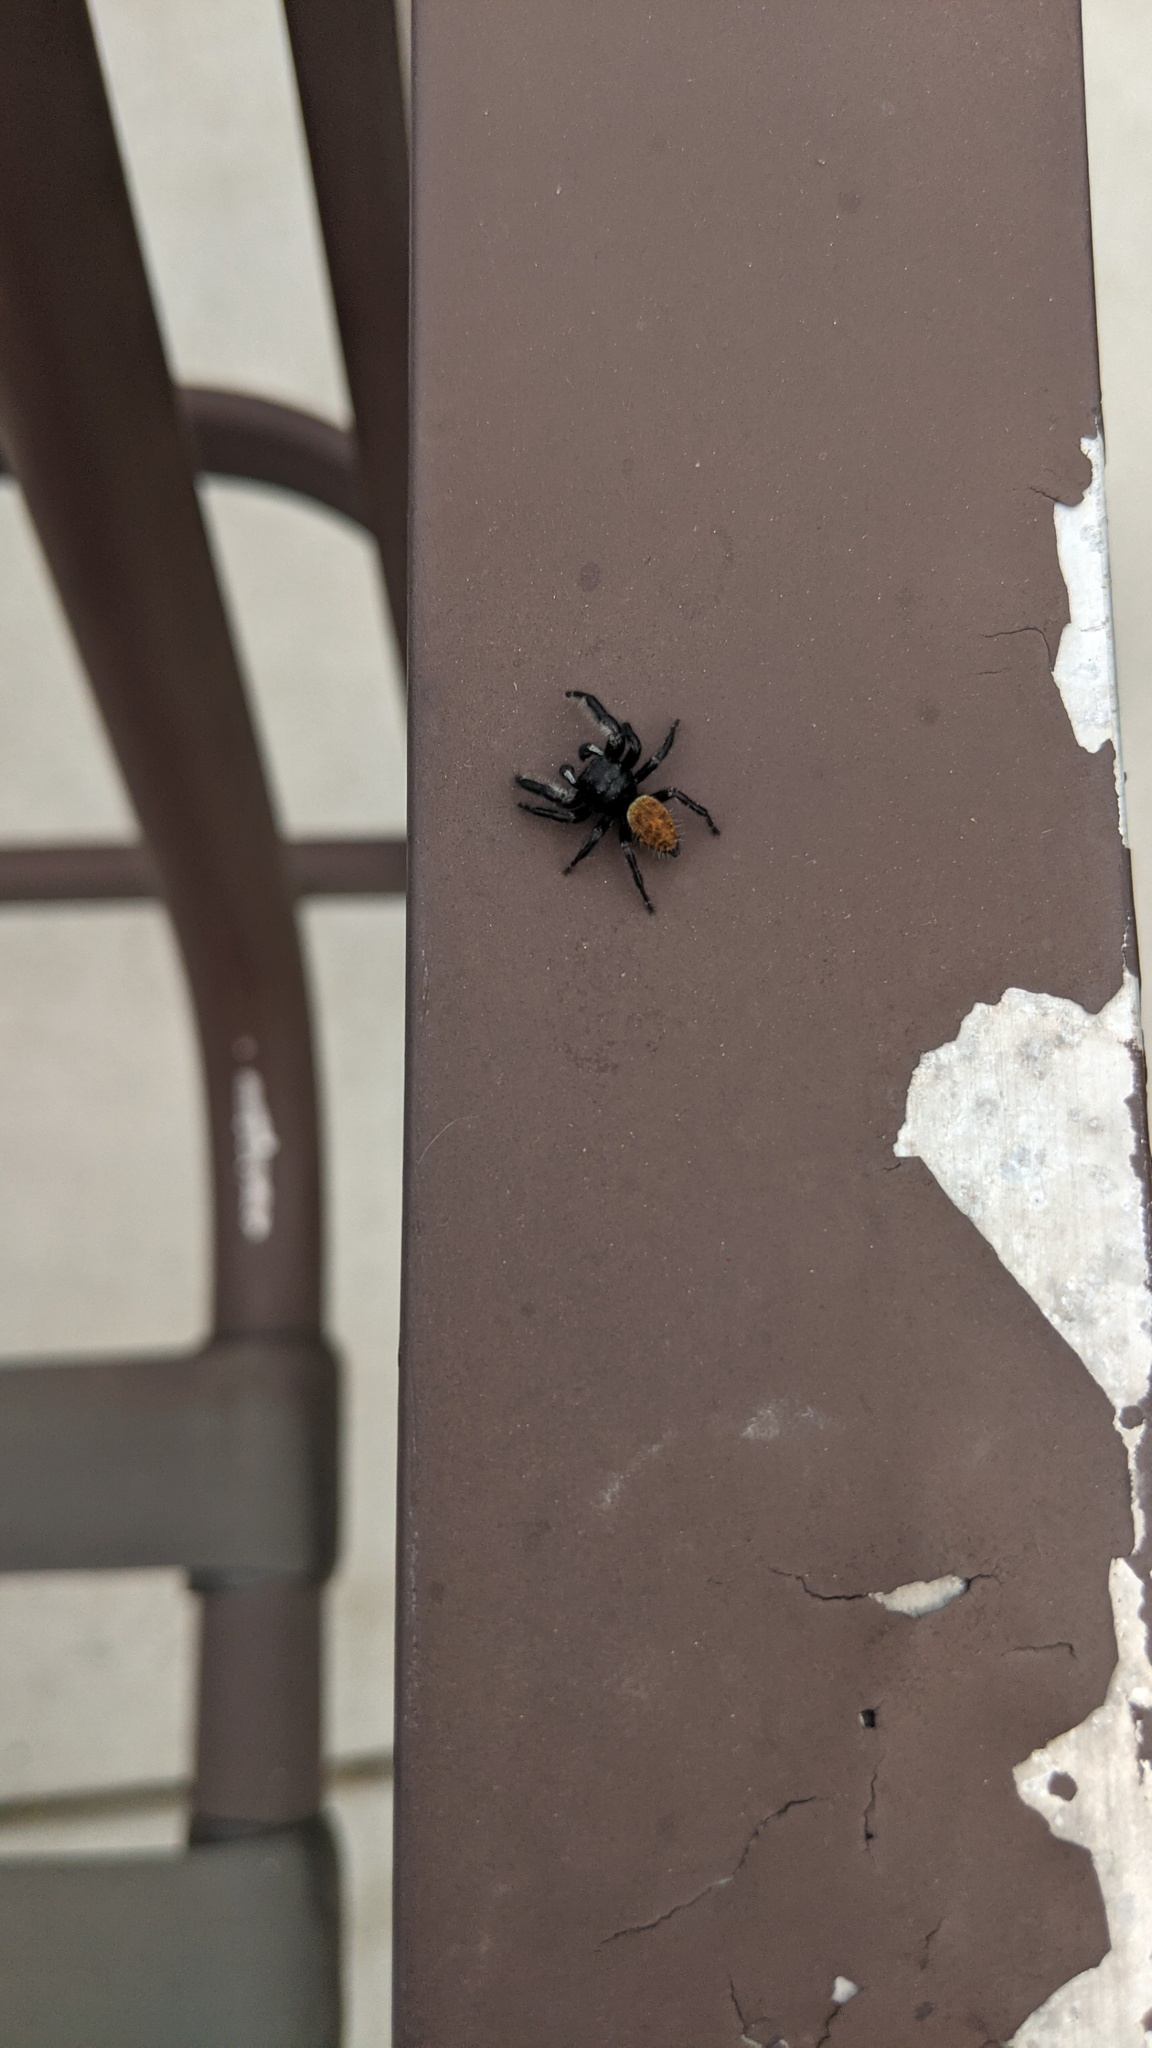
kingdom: Animalia
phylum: Arthropoda
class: Arachnida
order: Araneae
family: Salticidae
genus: Phidippus
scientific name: Phidippus princeps
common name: Grayish jumping spider
